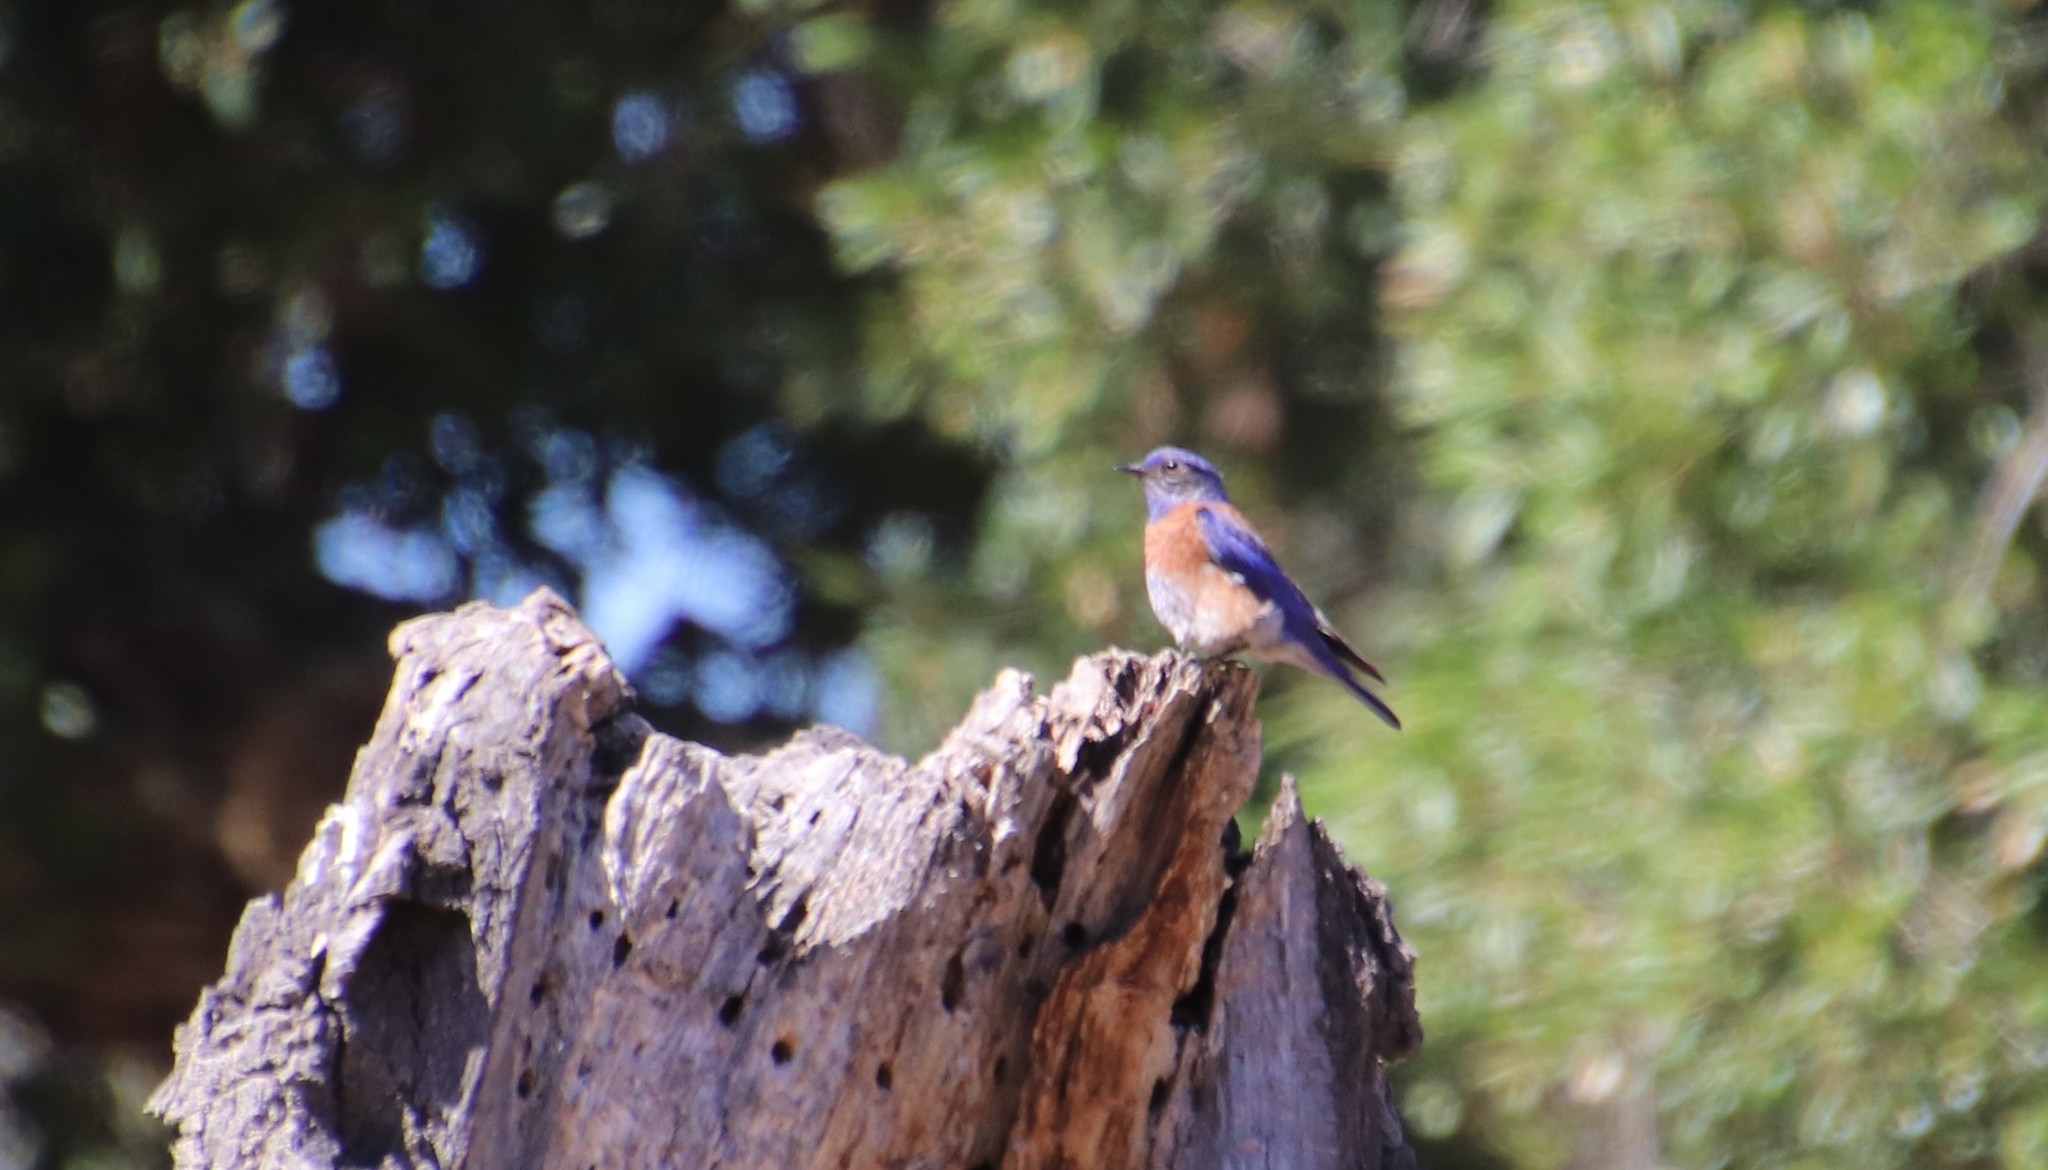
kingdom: Animalia
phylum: Chordata
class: Aves
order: Passeriformes
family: Turdidae
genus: Sialia
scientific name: Sialia mexicana
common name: Western bluebird
